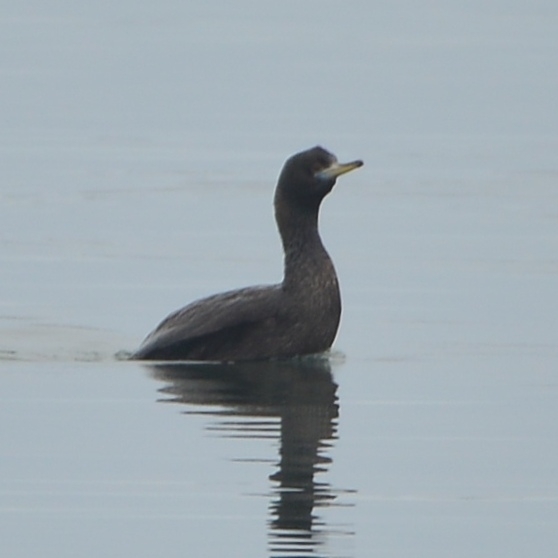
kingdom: Animalia
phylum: Chordata
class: Aves
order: Suliformes
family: Phalacrocoracidae
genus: Phalacrocorax
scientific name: Phalacrocorax urile
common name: Red-faced cormorant
